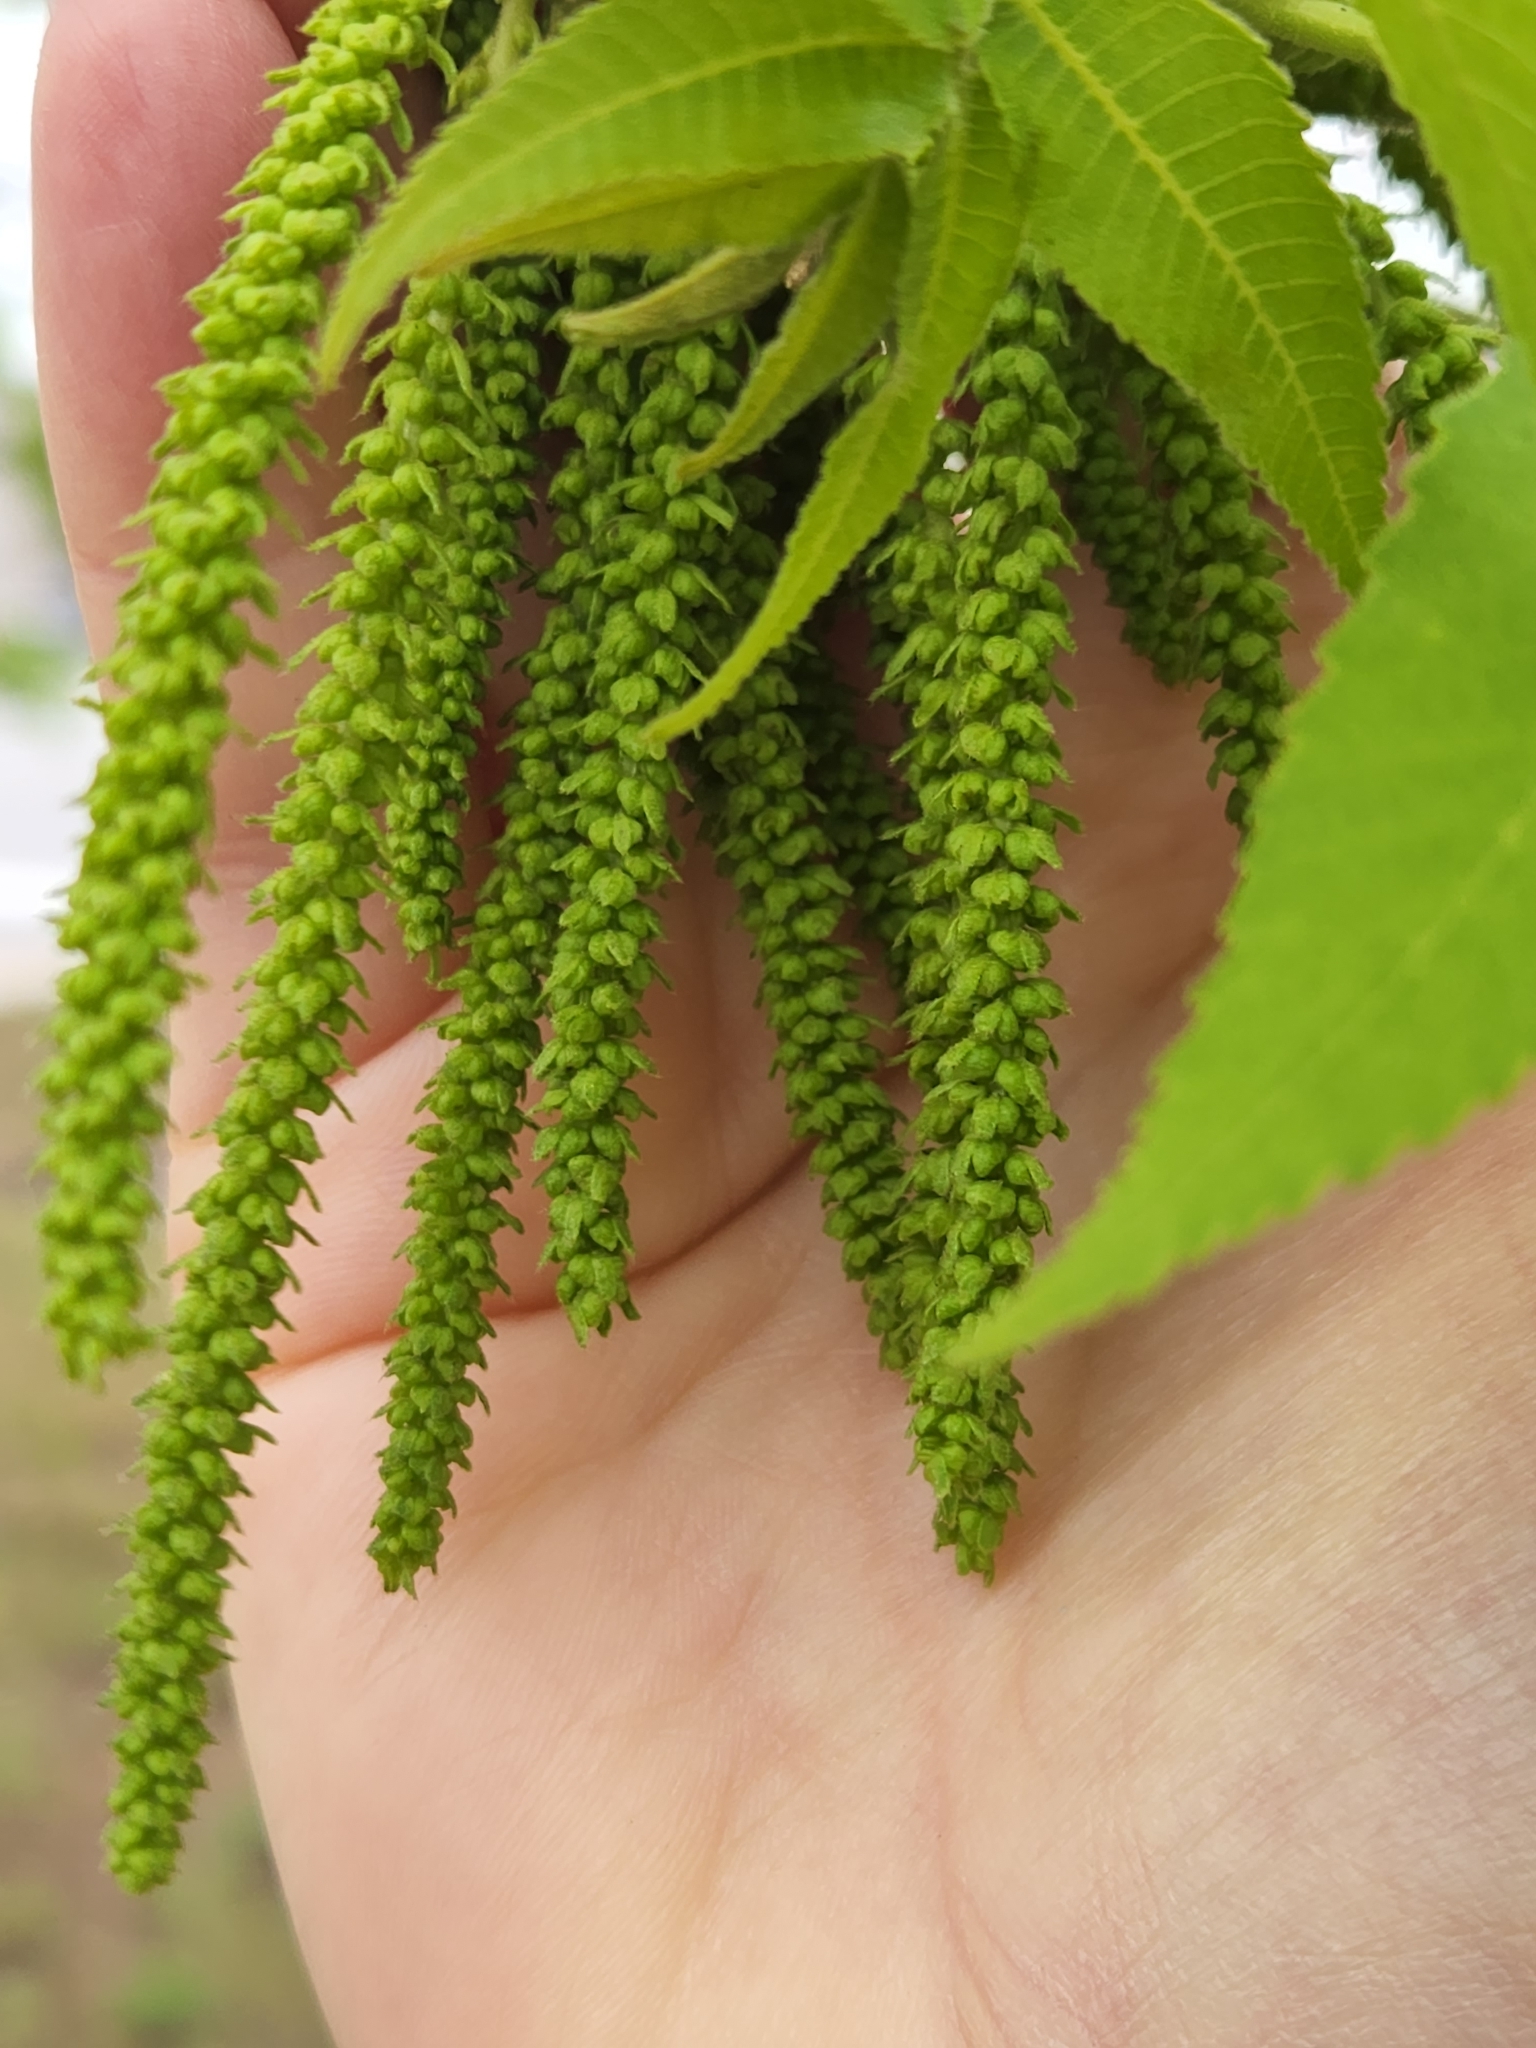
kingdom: Plantae
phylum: Tracheophyta
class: Magnoliopsida
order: Fagales
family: Juglandaceae
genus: Carya
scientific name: Carya illinoinensis
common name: Pecan
